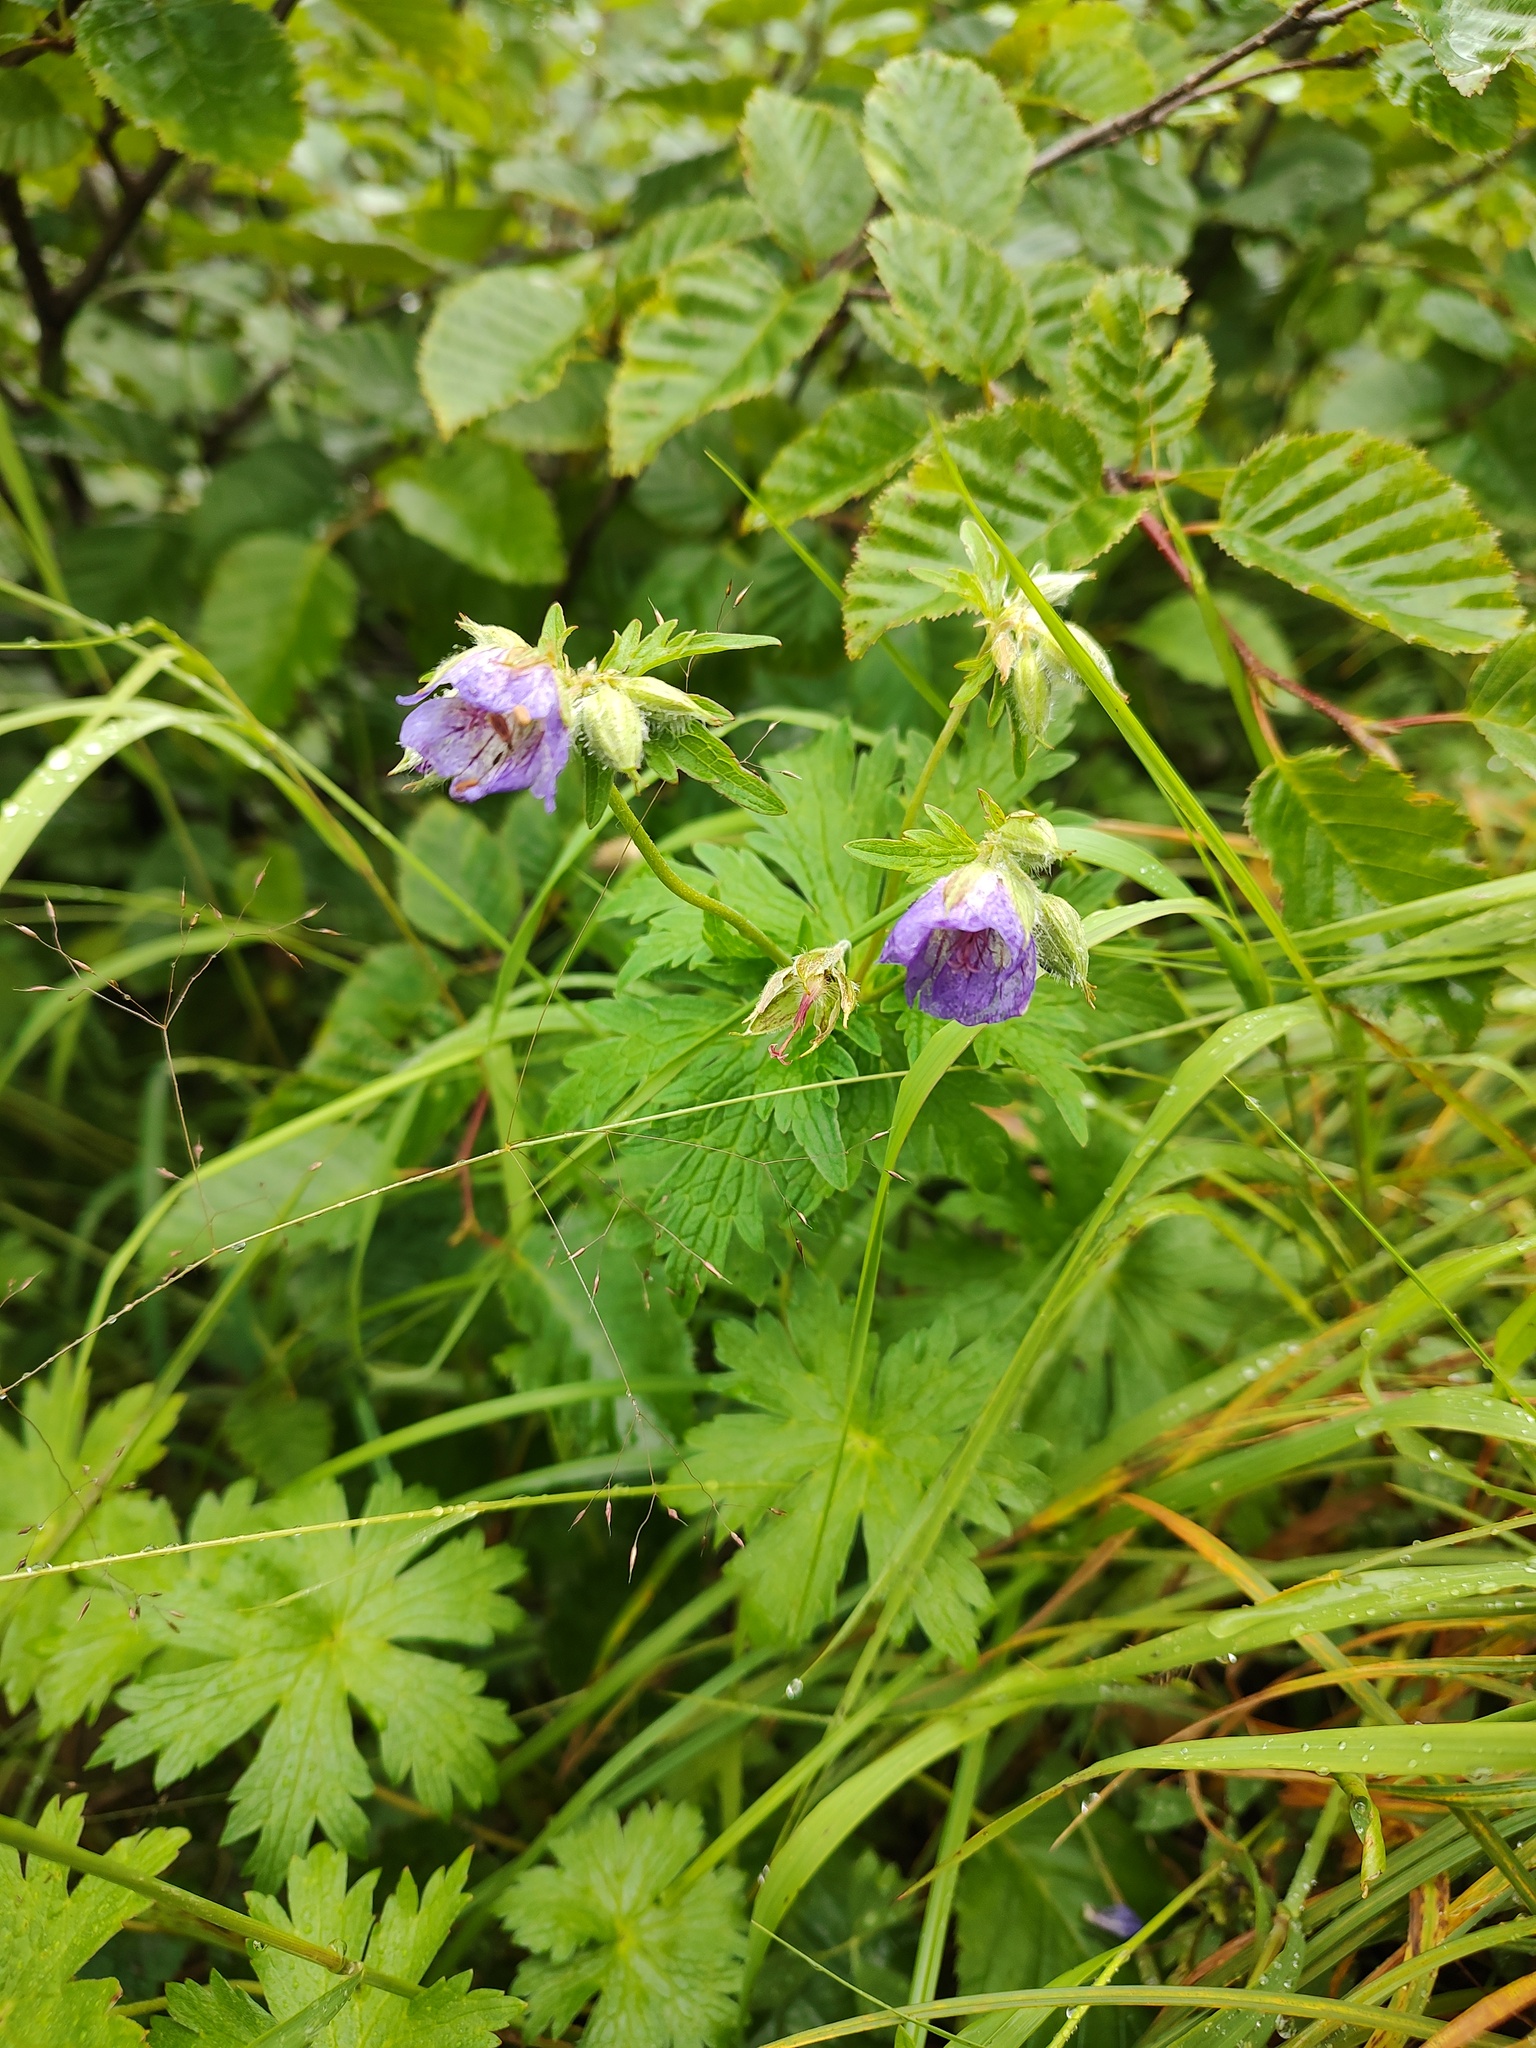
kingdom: Plantae
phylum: Tracheophyta
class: Magnoliopsida
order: Geraniales
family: Geraniaceae
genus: Geranium
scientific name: Geranium erianthum
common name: Northern crane's-bill
